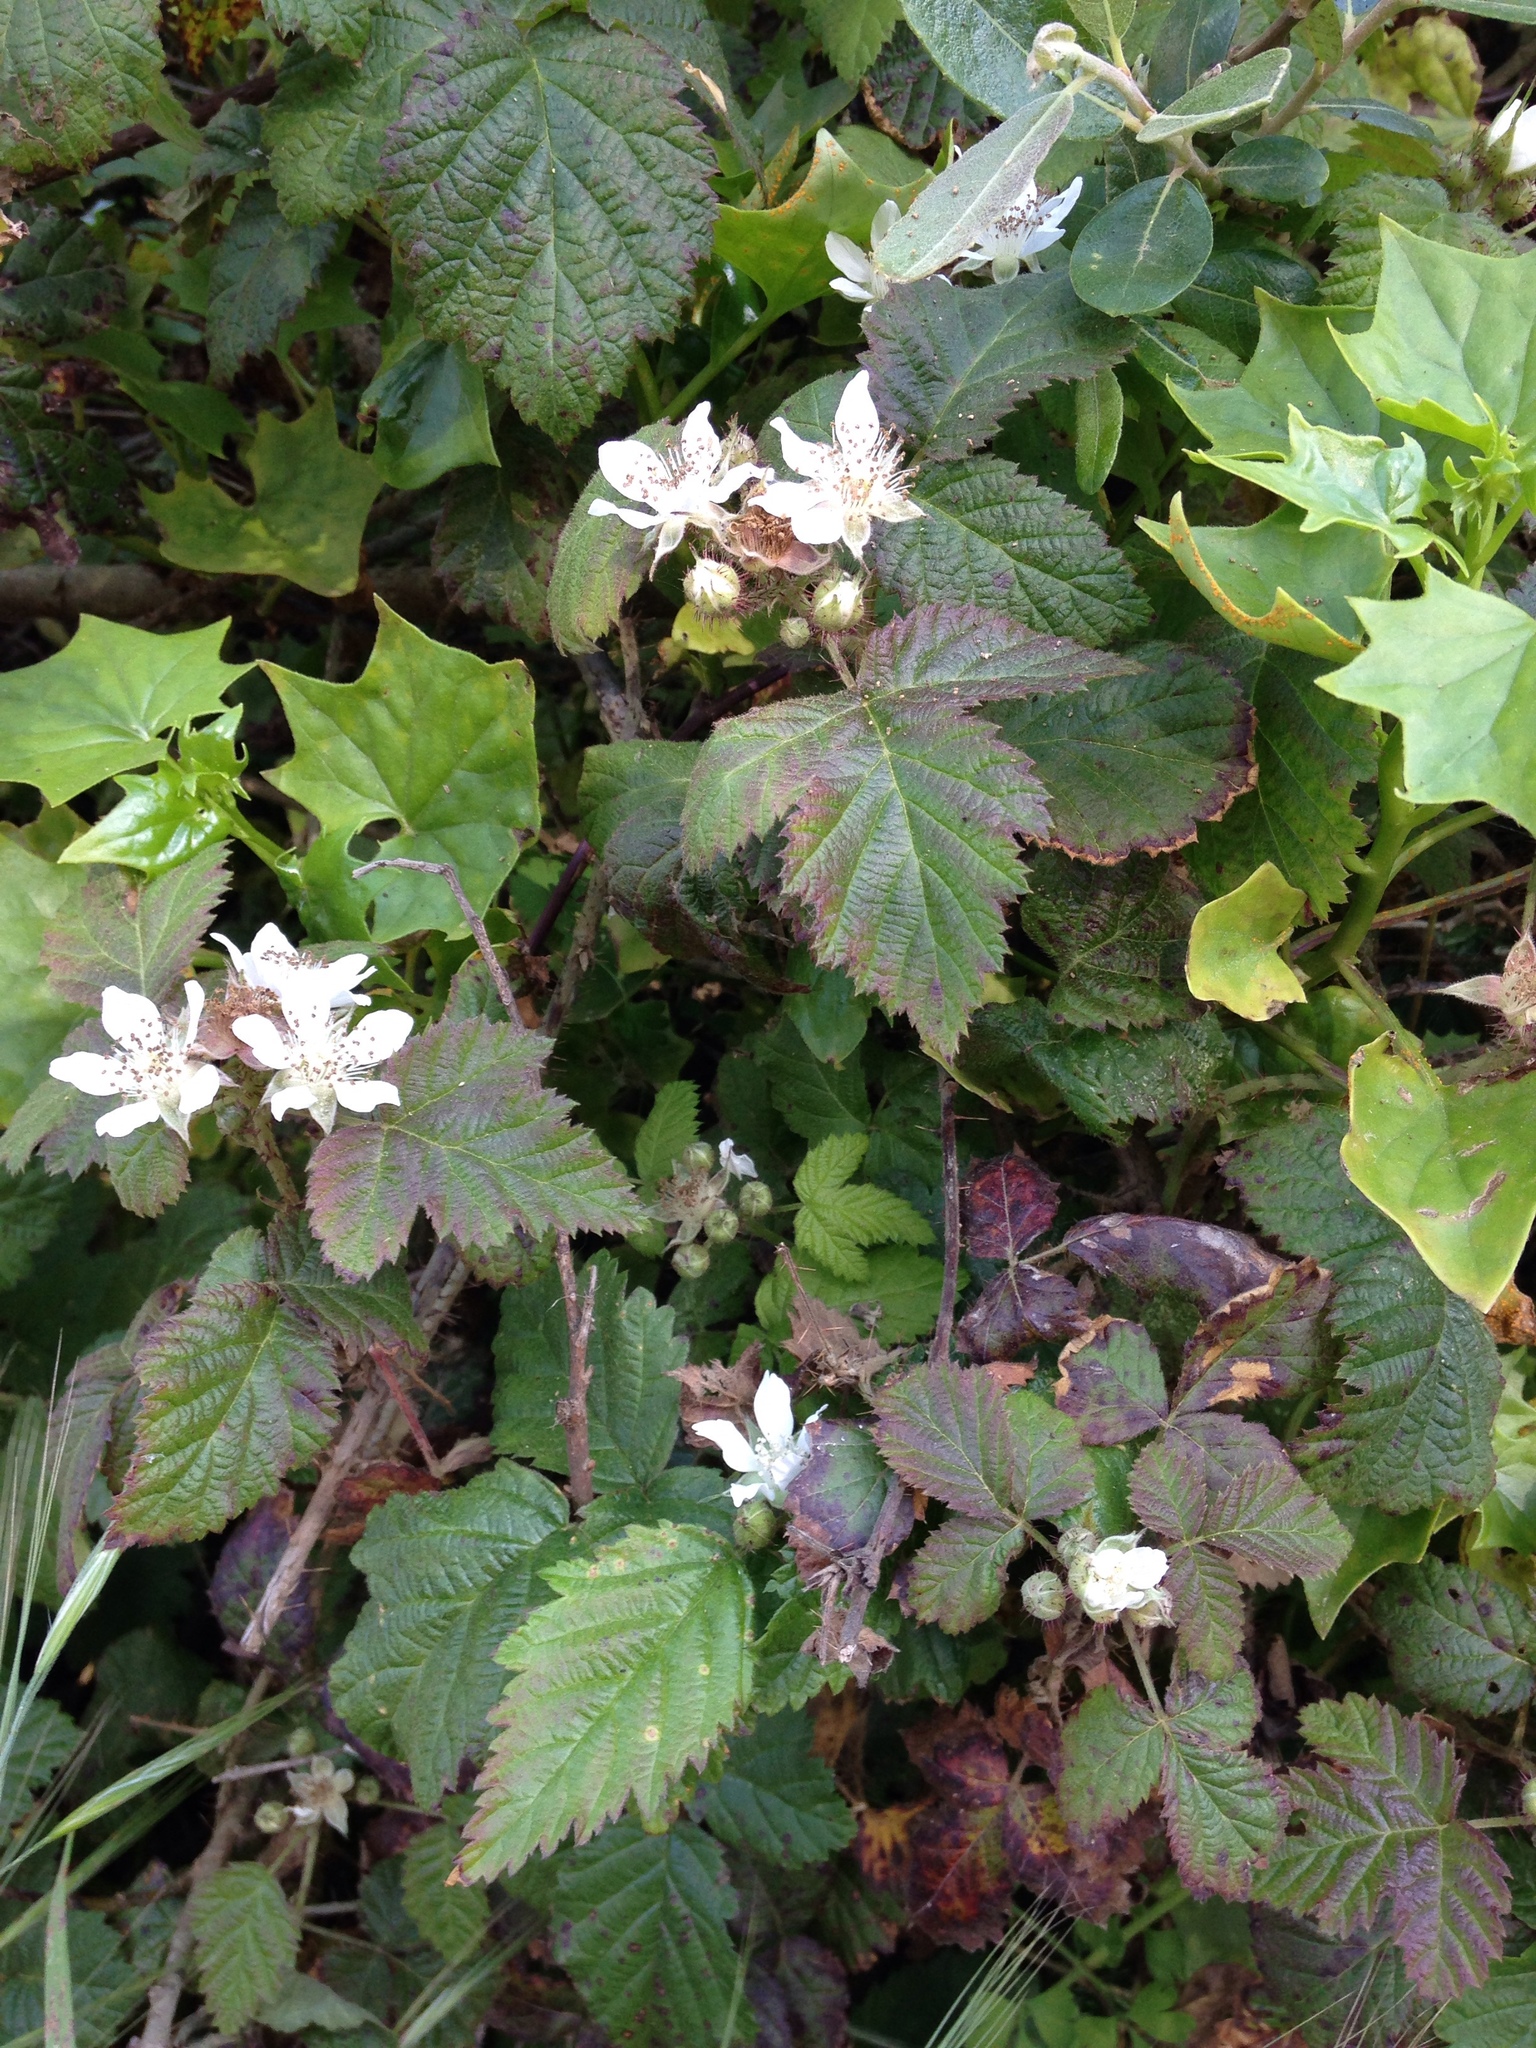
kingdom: Plantae
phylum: Tracheophyta
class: Magnoliopsida
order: Rosales
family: Rosaceae
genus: Rubus
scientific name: Rubus ursinus
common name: Pacific blackberry
